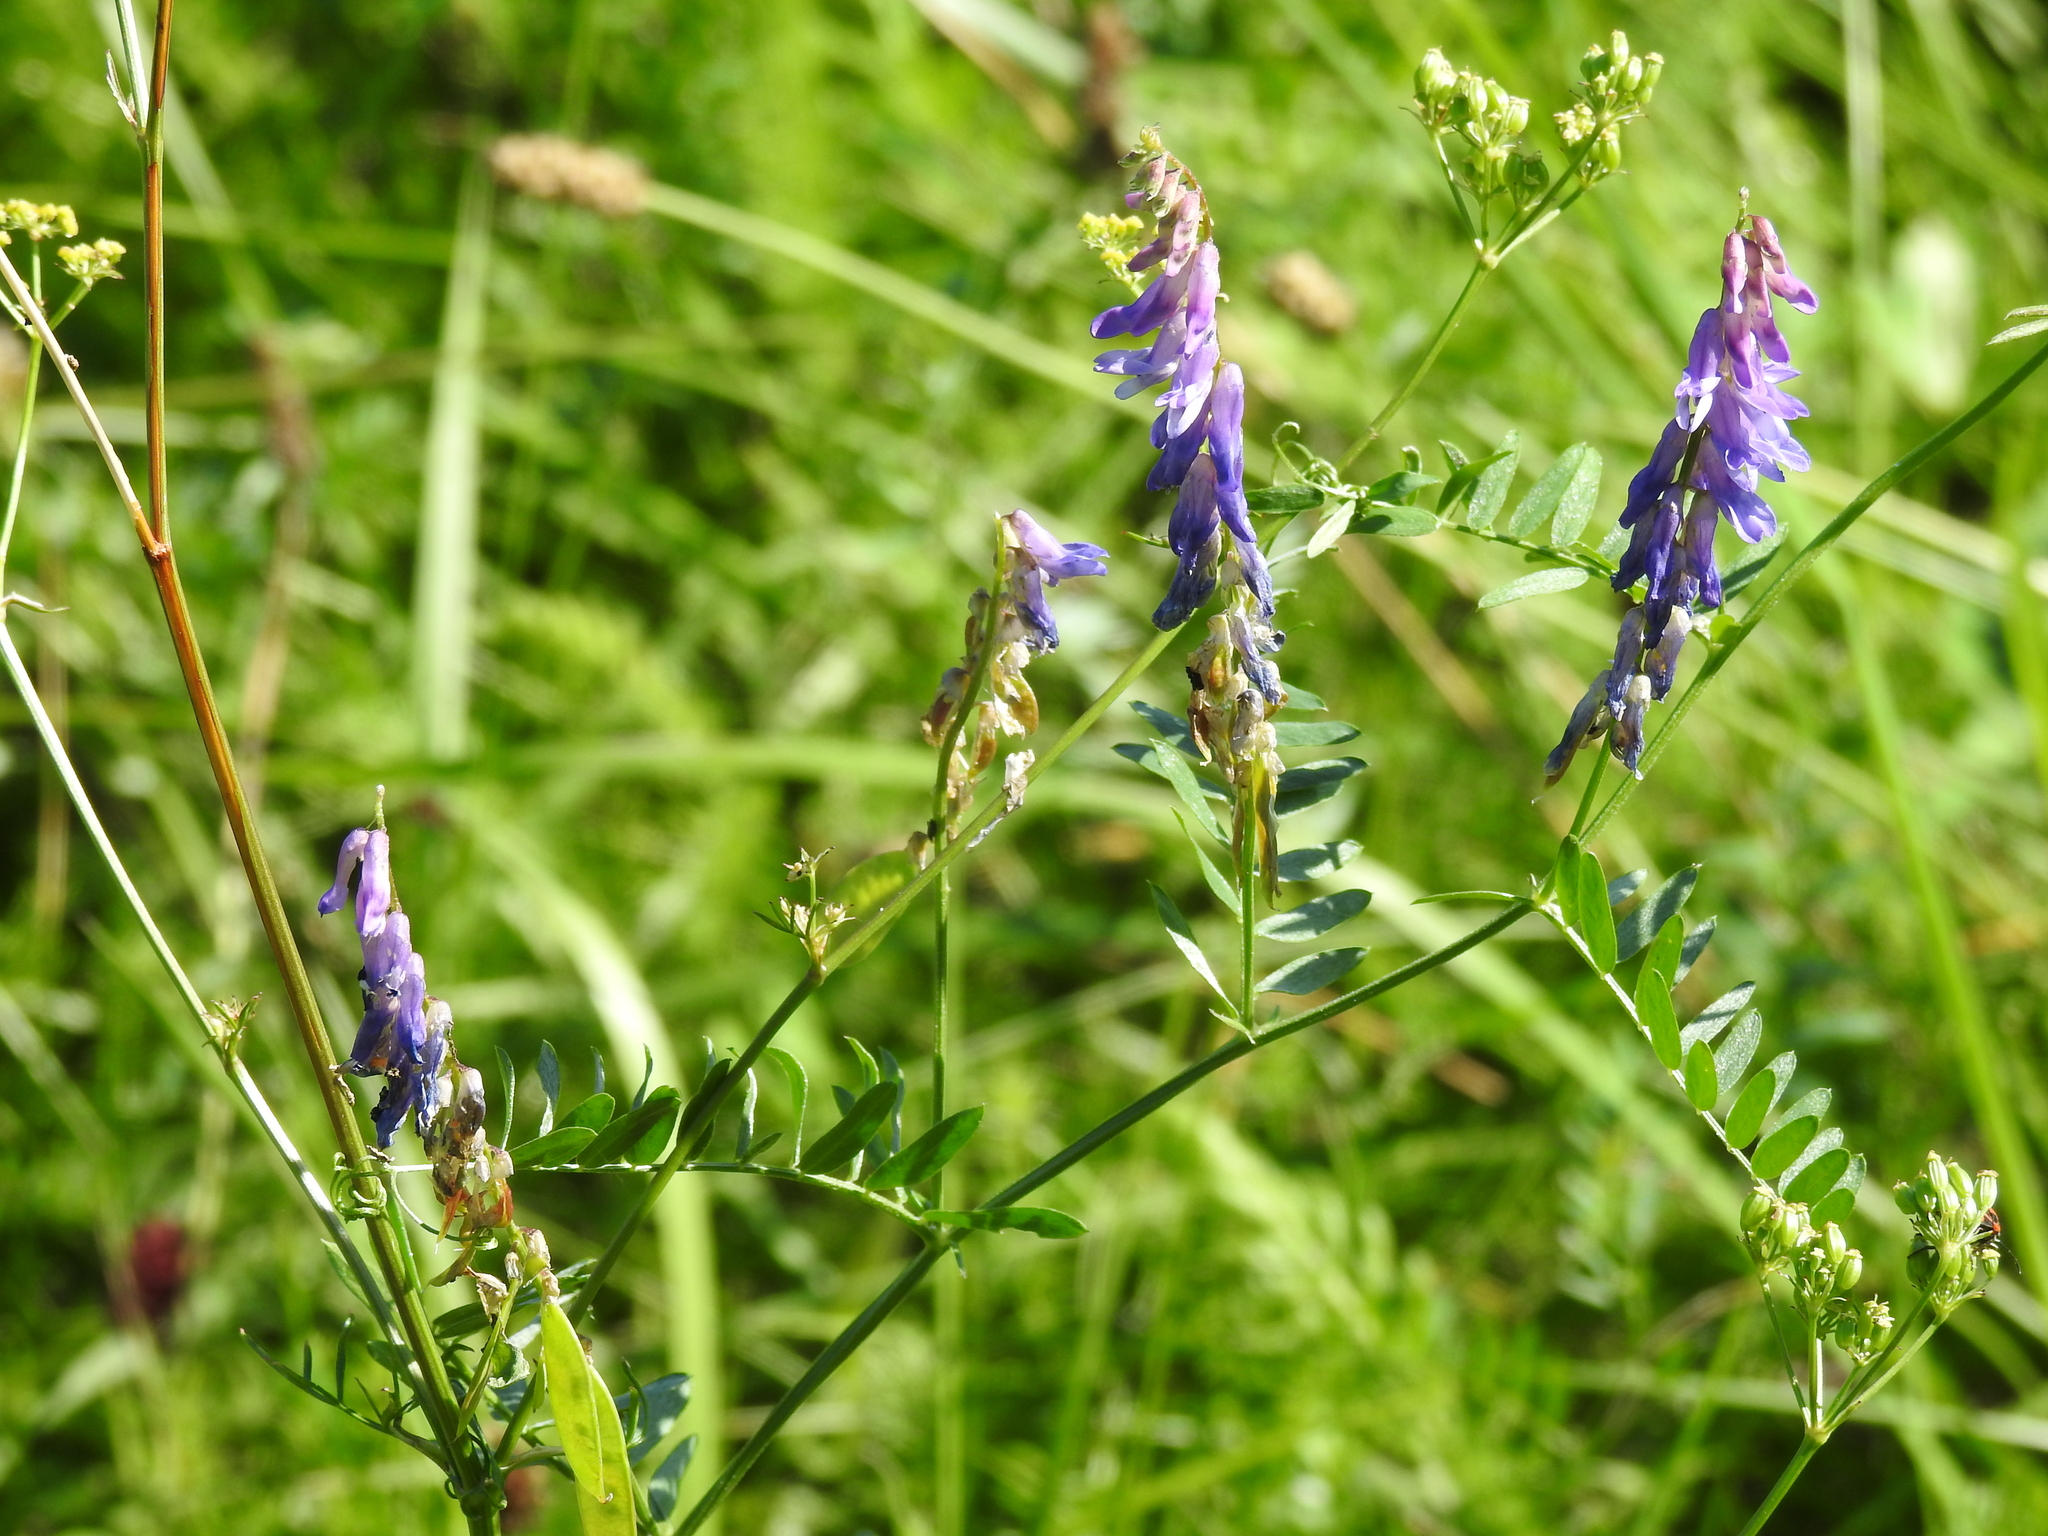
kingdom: Plantae
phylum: Tracheophyta
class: Magnoliopsida
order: Fabales
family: Fabaceae
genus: Vicia
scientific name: Vicia cracca
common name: Bird vetch
